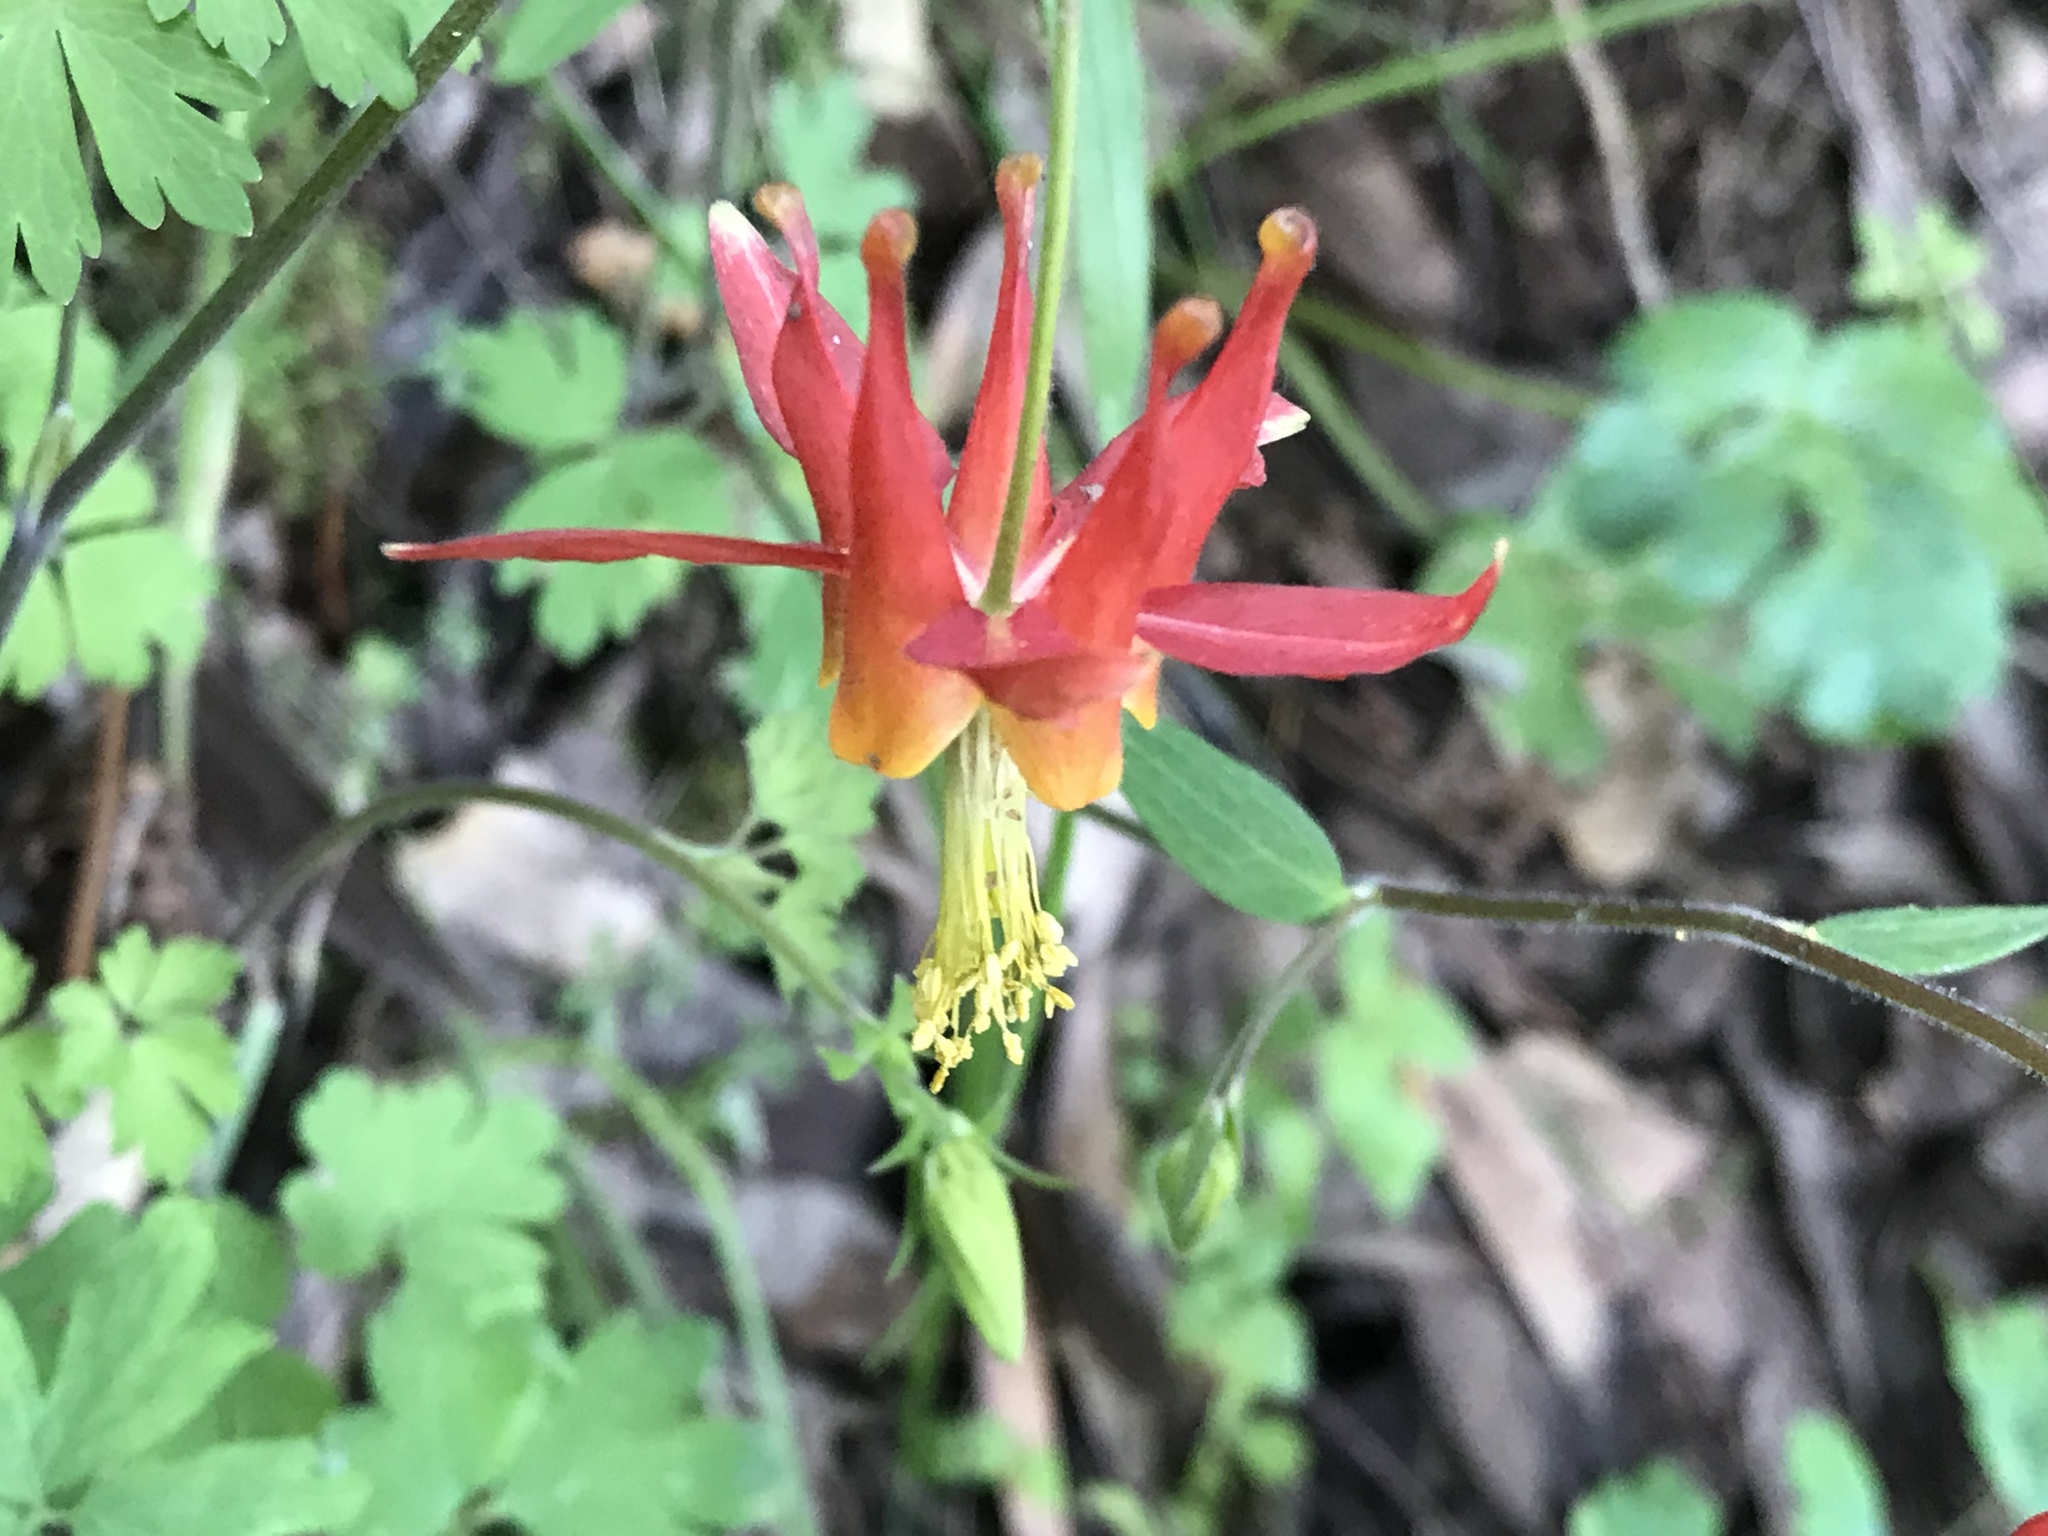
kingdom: Plantae
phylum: Tracheophyta
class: Magnoliopsida
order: Ranunculales
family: Ranunculaceae
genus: Aquilegia
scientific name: Aquilegia formosa
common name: Sitka columbine
